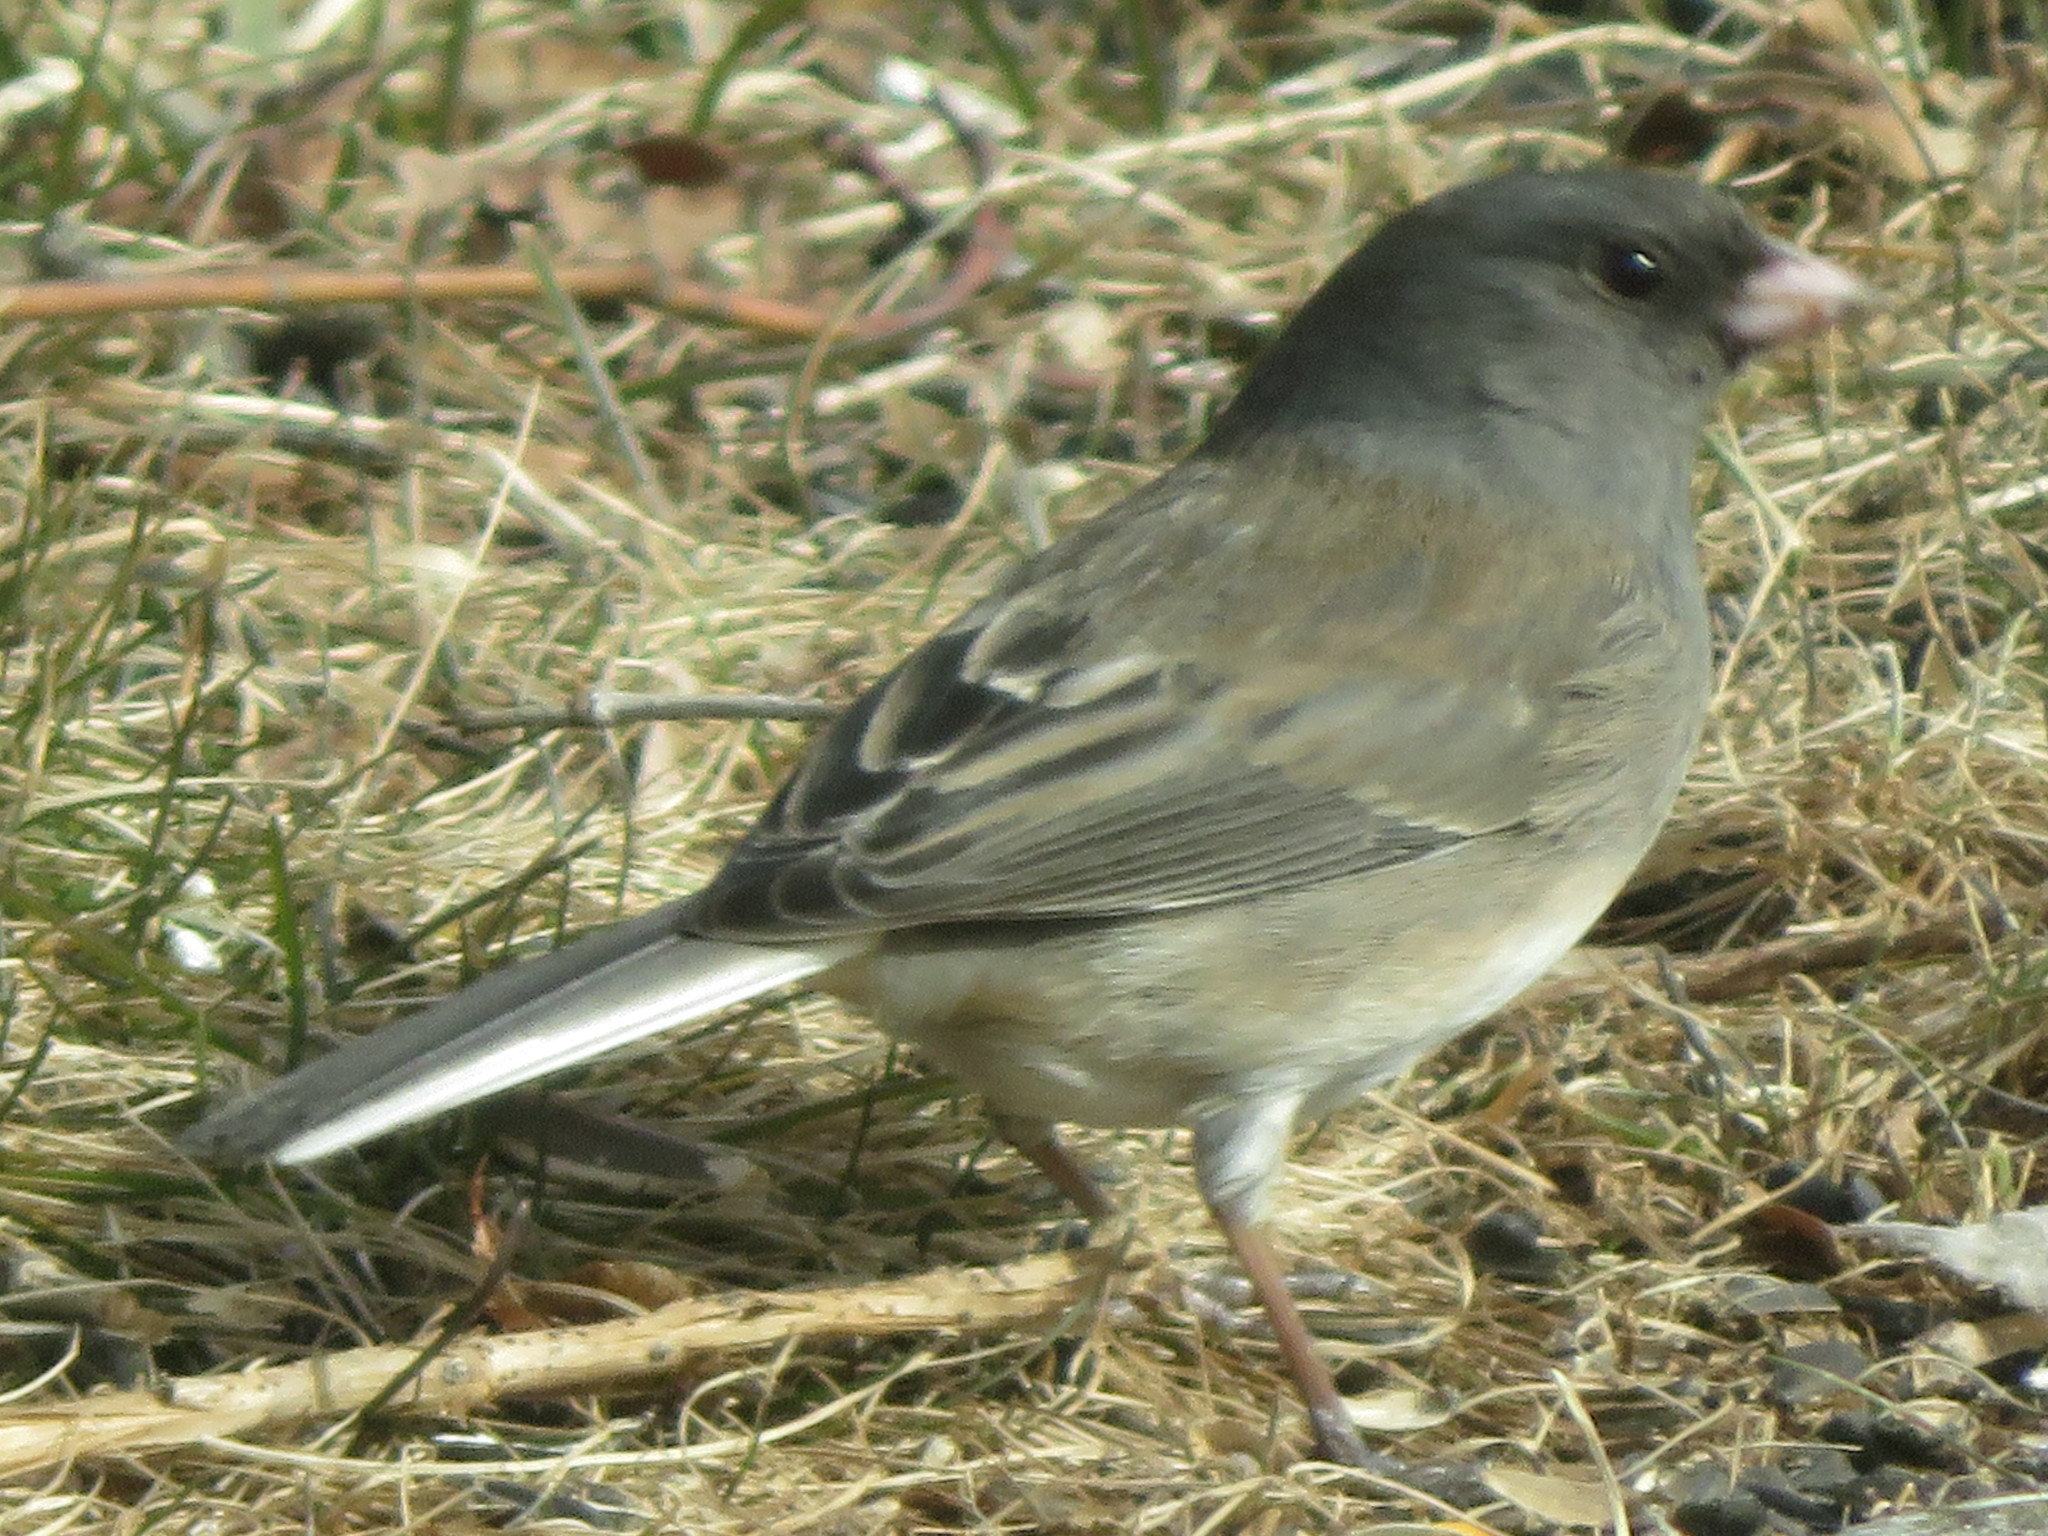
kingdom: Animalia
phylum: Chordata
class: Aves
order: Passeriformes
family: Passerellidae
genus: Junco
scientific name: Junco hyemalis
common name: Dark-eyed junco
